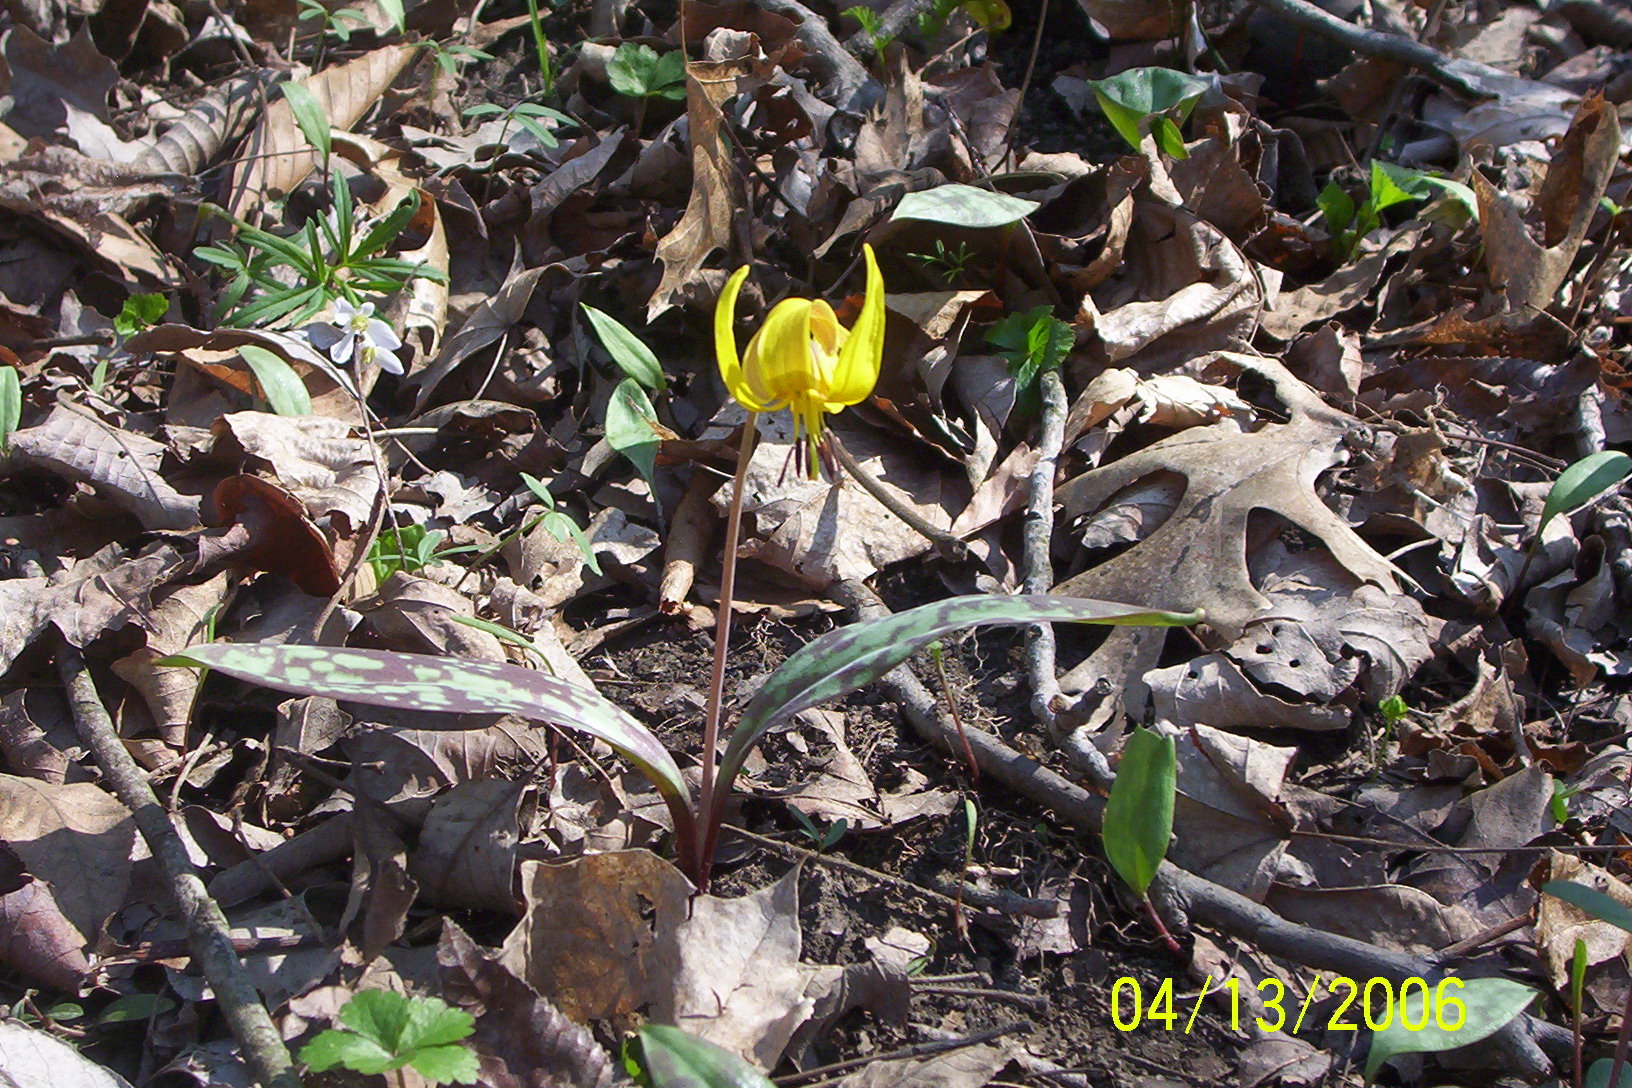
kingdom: Plantae
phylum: Tracheophyta
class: Liliopsida
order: Liliales
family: Liliaceae
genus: Erythronium
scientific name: Erythronium americanum
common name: Yellow adder's-tongue
